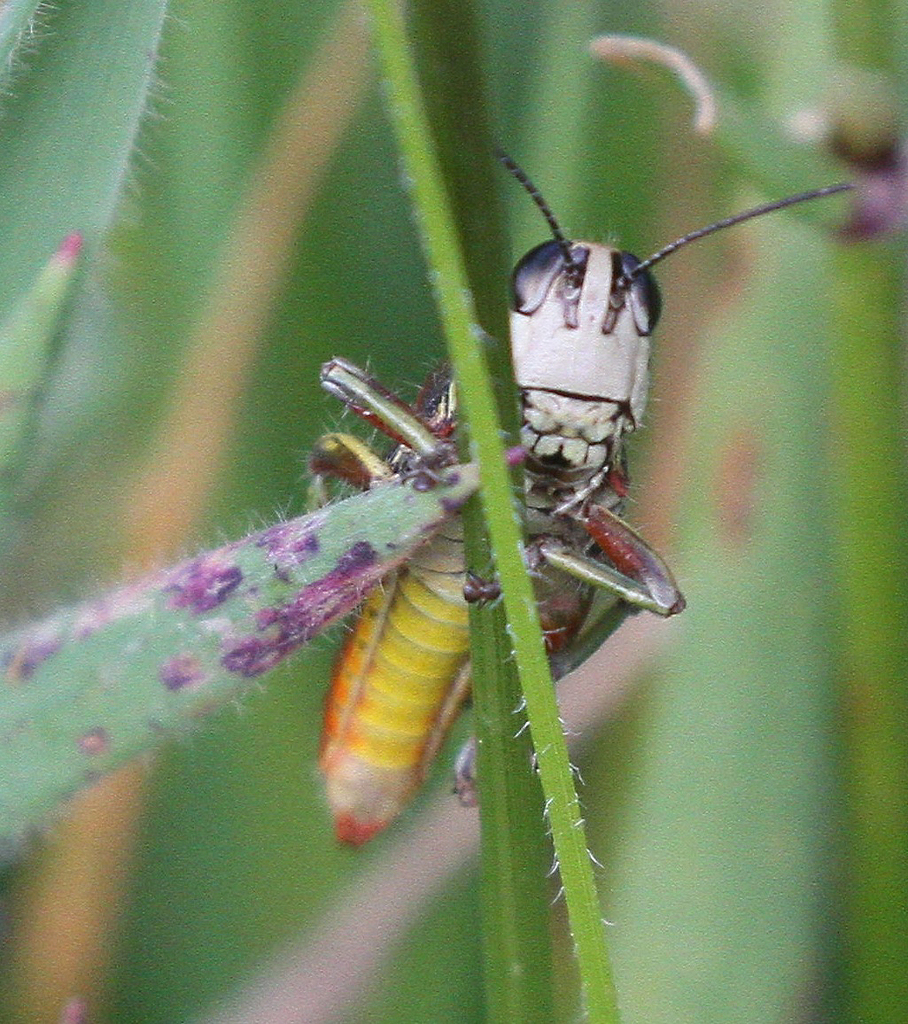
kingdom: Animalia
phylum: Arthropoda
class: Insecta
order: Orthoptera
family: Acrididae
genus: Jivarus
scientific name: Jivarus ronderosi
